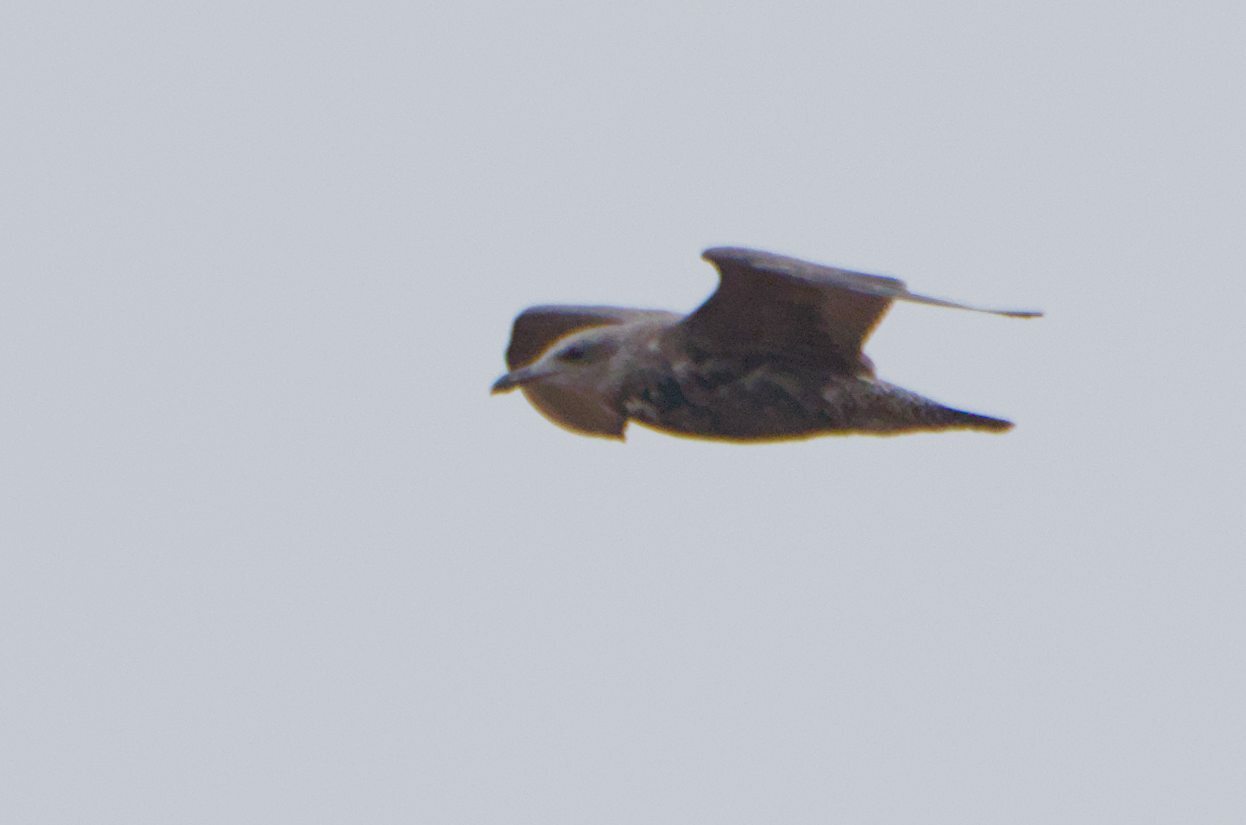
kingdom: Animalia
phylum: Chordata
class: Aves
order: Charadriiformes
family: Laridae
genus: Larus
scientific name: Larus argentatus
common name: Herring gull
